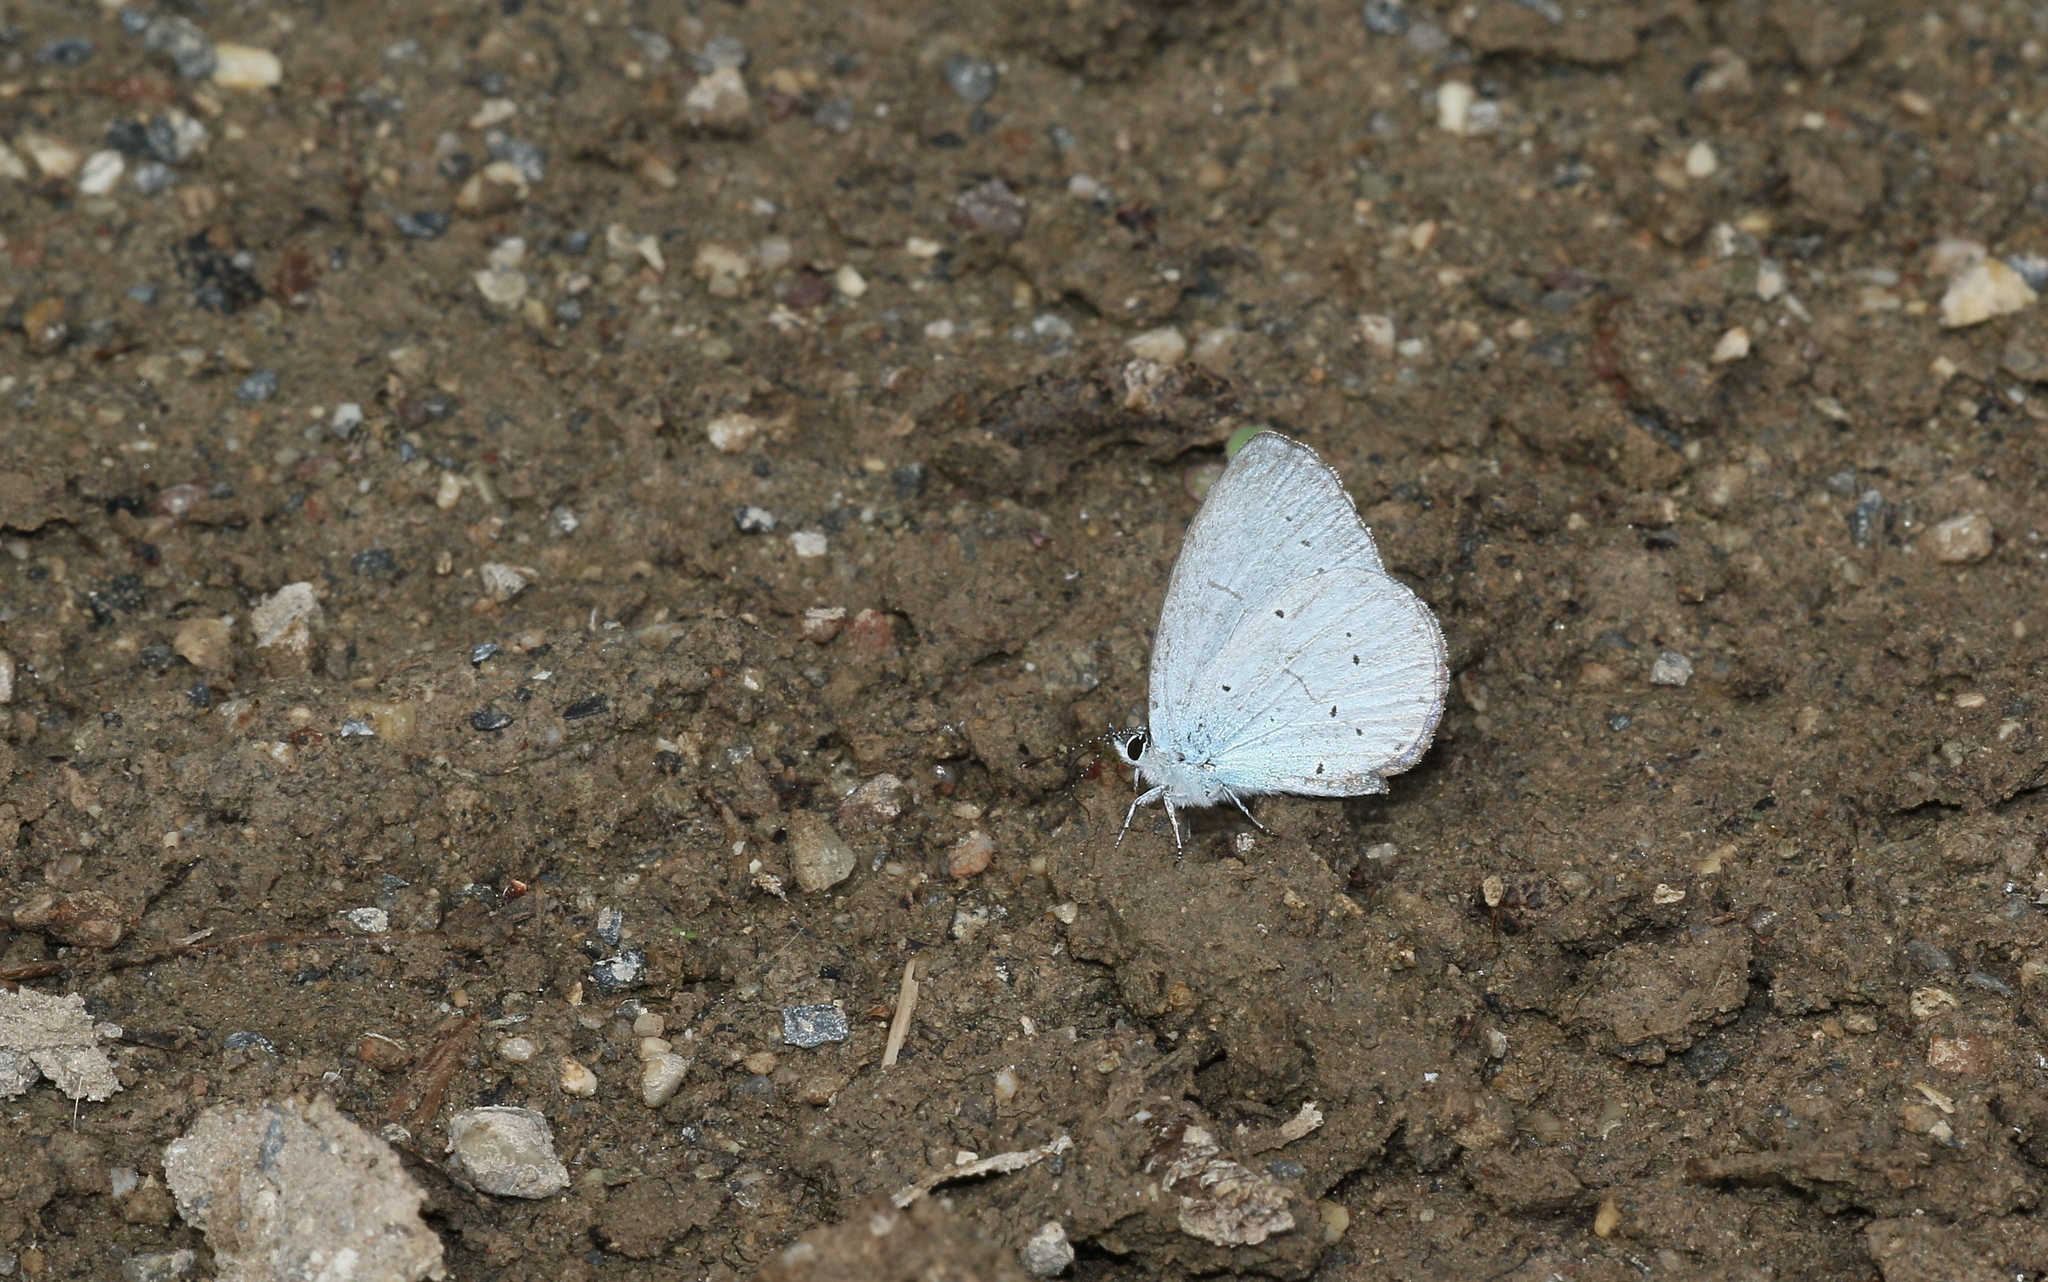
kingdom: Animalia
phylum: Arthropoda
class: Insecta
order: Lepidoptera
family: Lycaenidae
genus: Celastrina
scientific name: Celastrina argiolus
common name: Holly blue
